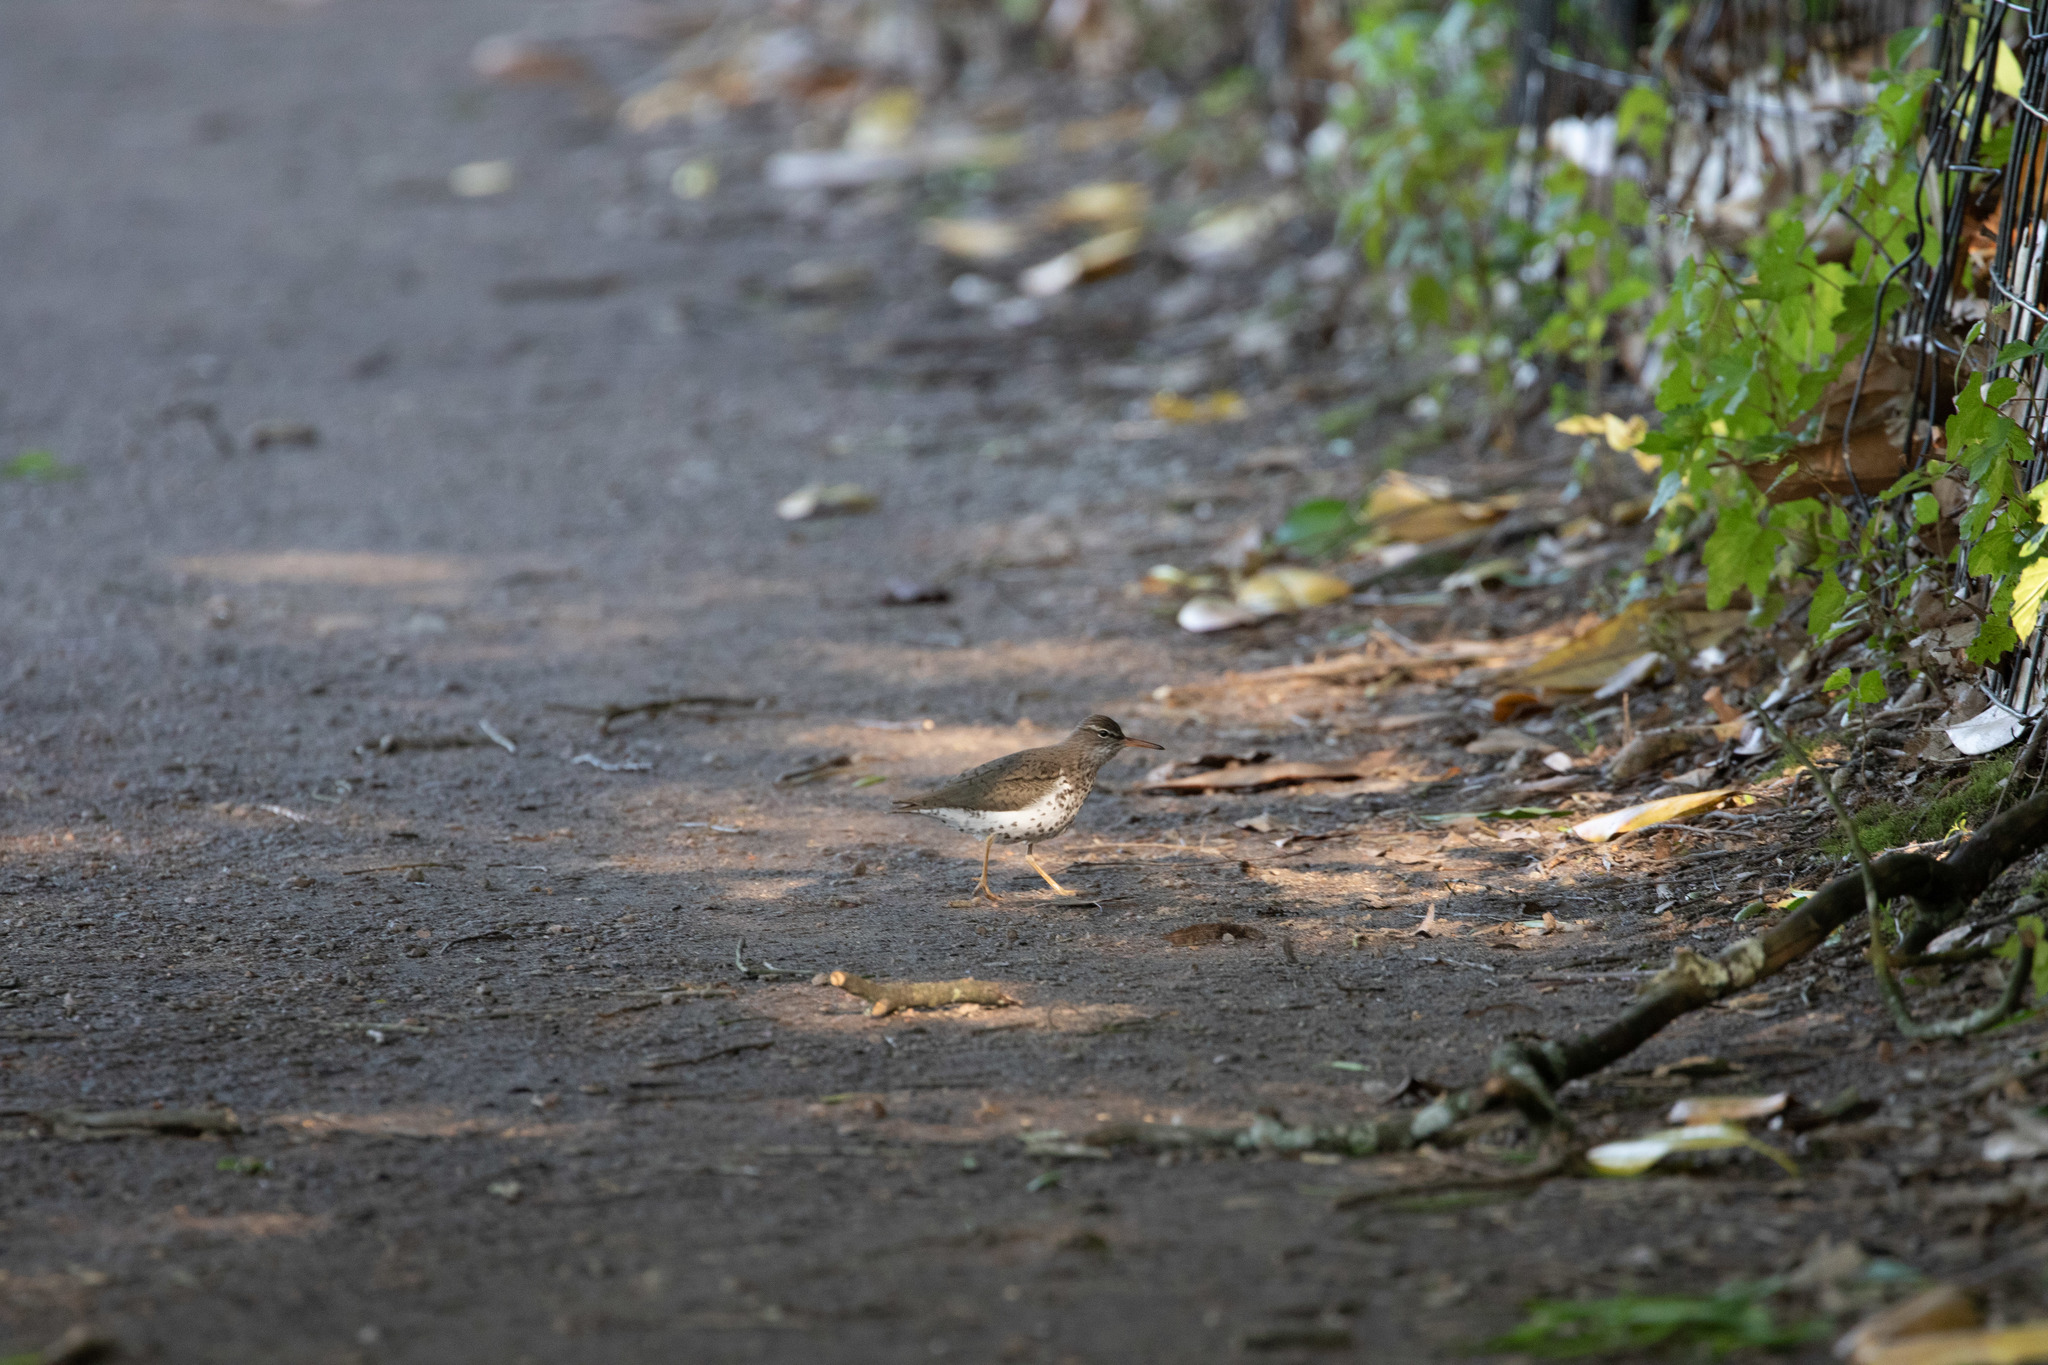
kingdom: Animalia
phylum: Chordata
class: Aves
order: Charadriiformes
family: Scolopacidae
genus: Actitis
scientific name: Actitis macularius
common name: Spotted sandpiper
